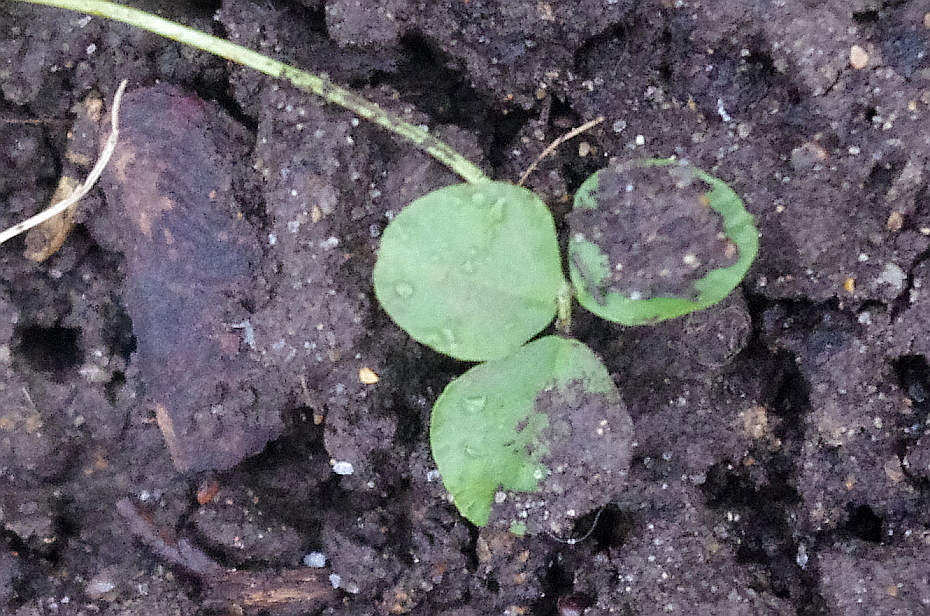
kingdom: Plantae
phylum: Tracheophyta
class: Magnoliopsida
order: Fabales
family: Fabaceae
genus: Medicago
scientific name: Medicago lupulina
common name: Black medick
